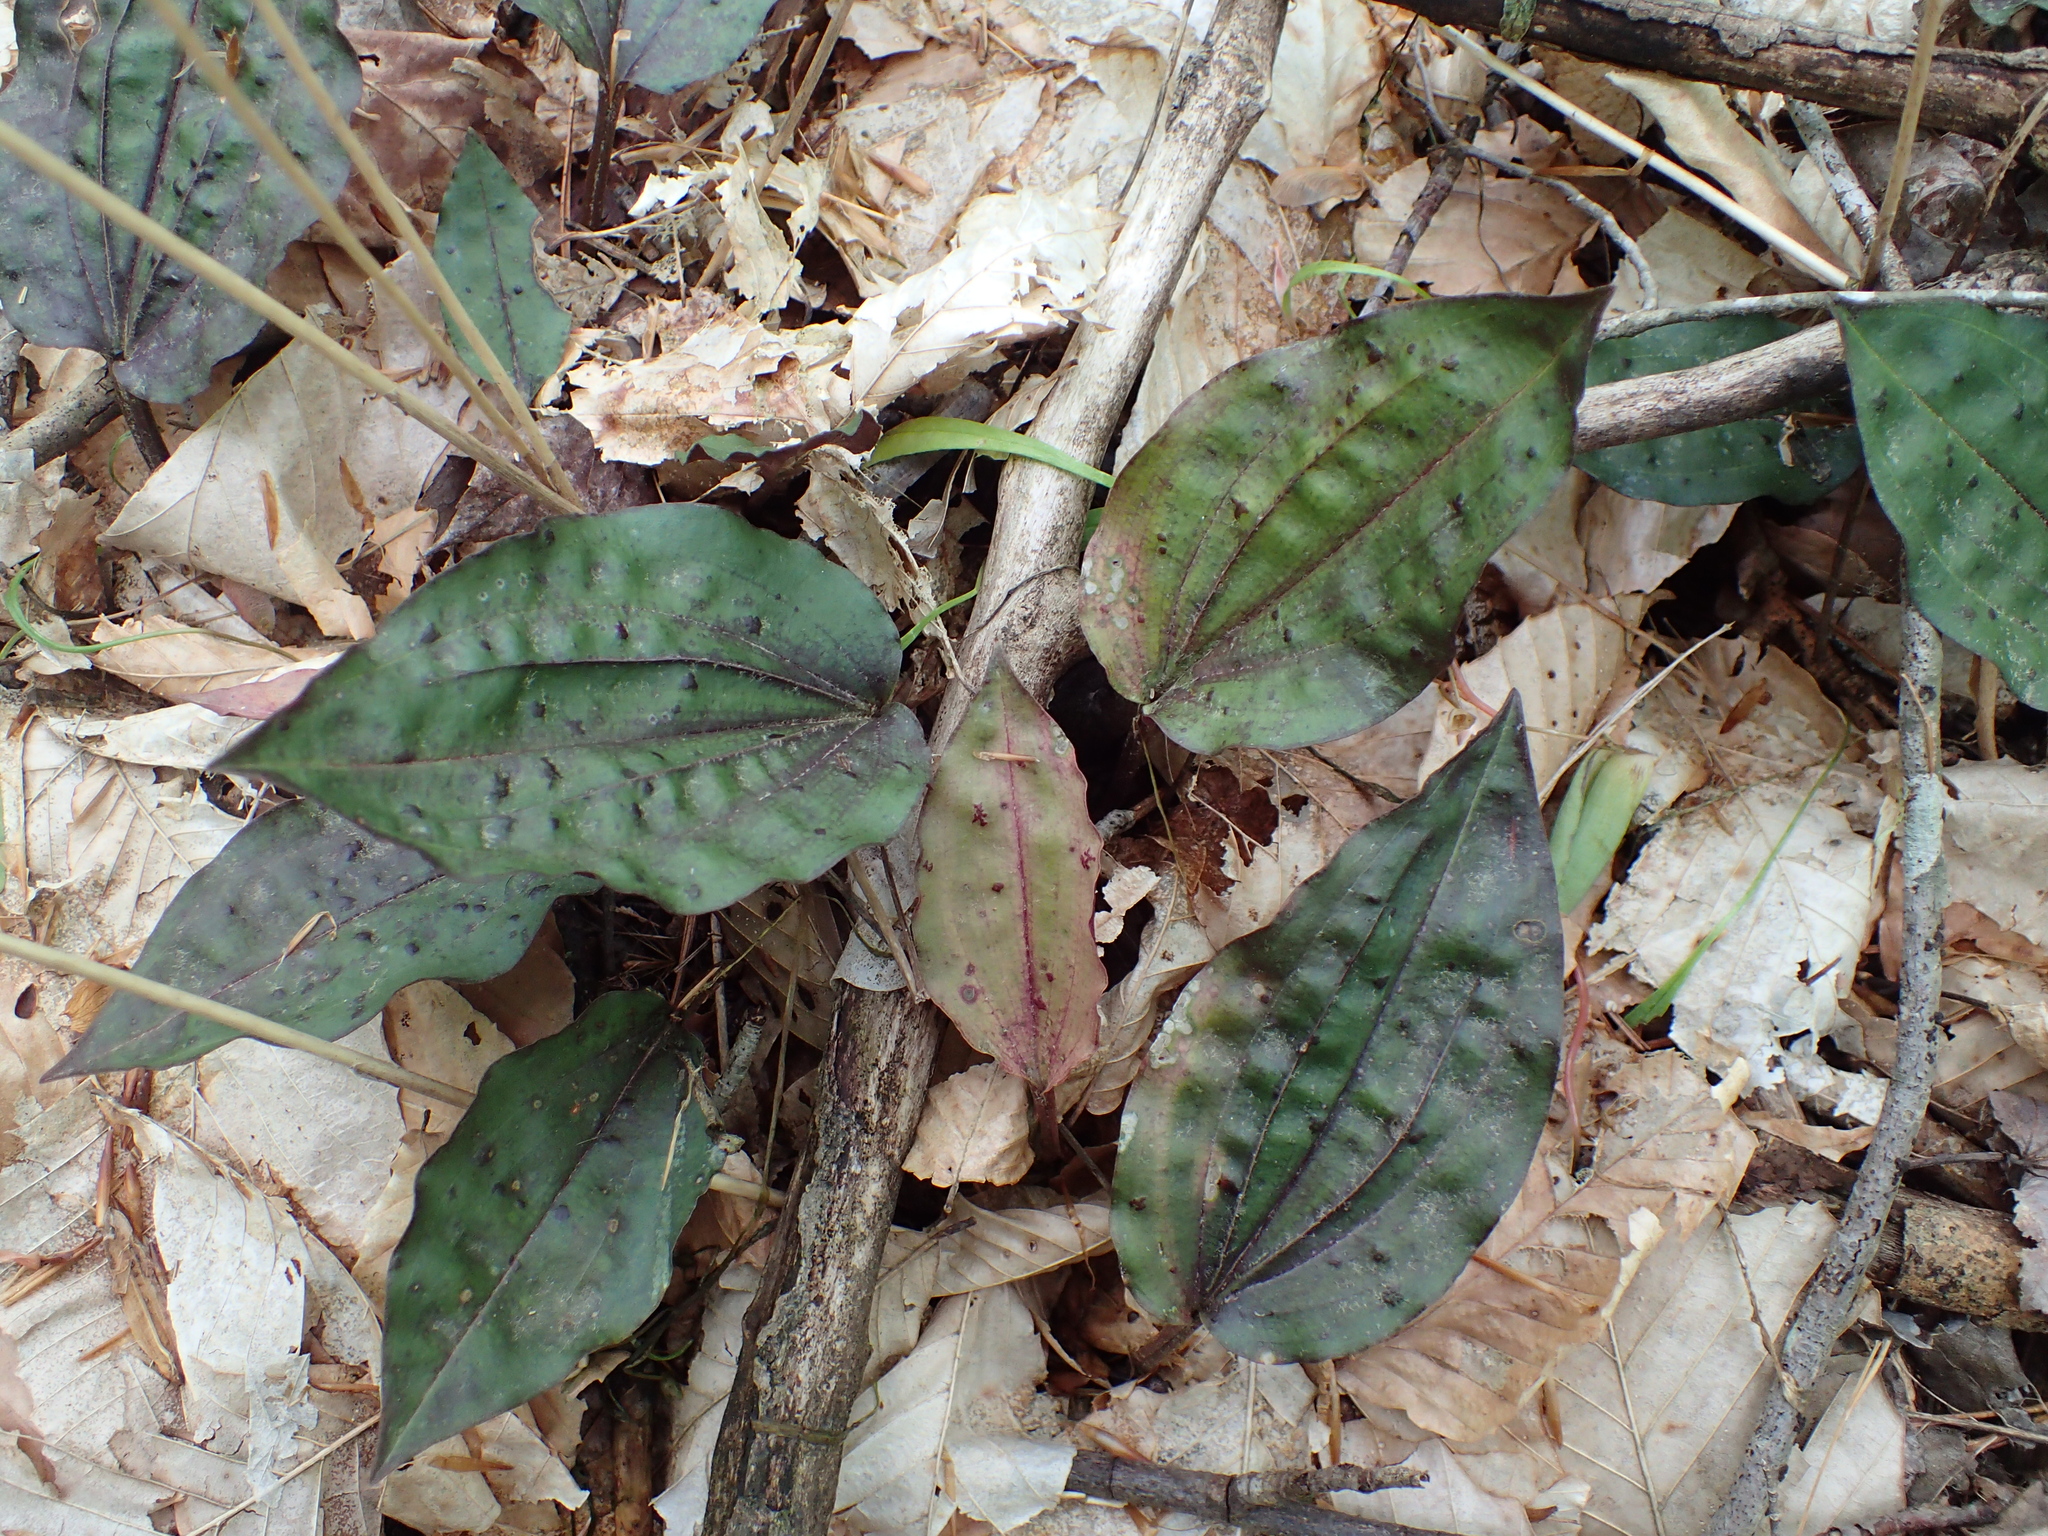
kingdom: Plantae
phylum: Tracheophyta
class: Liliopsida
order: Asparagales
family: Orchidaceae
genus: Tipularia
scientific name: Tipularia discolor
